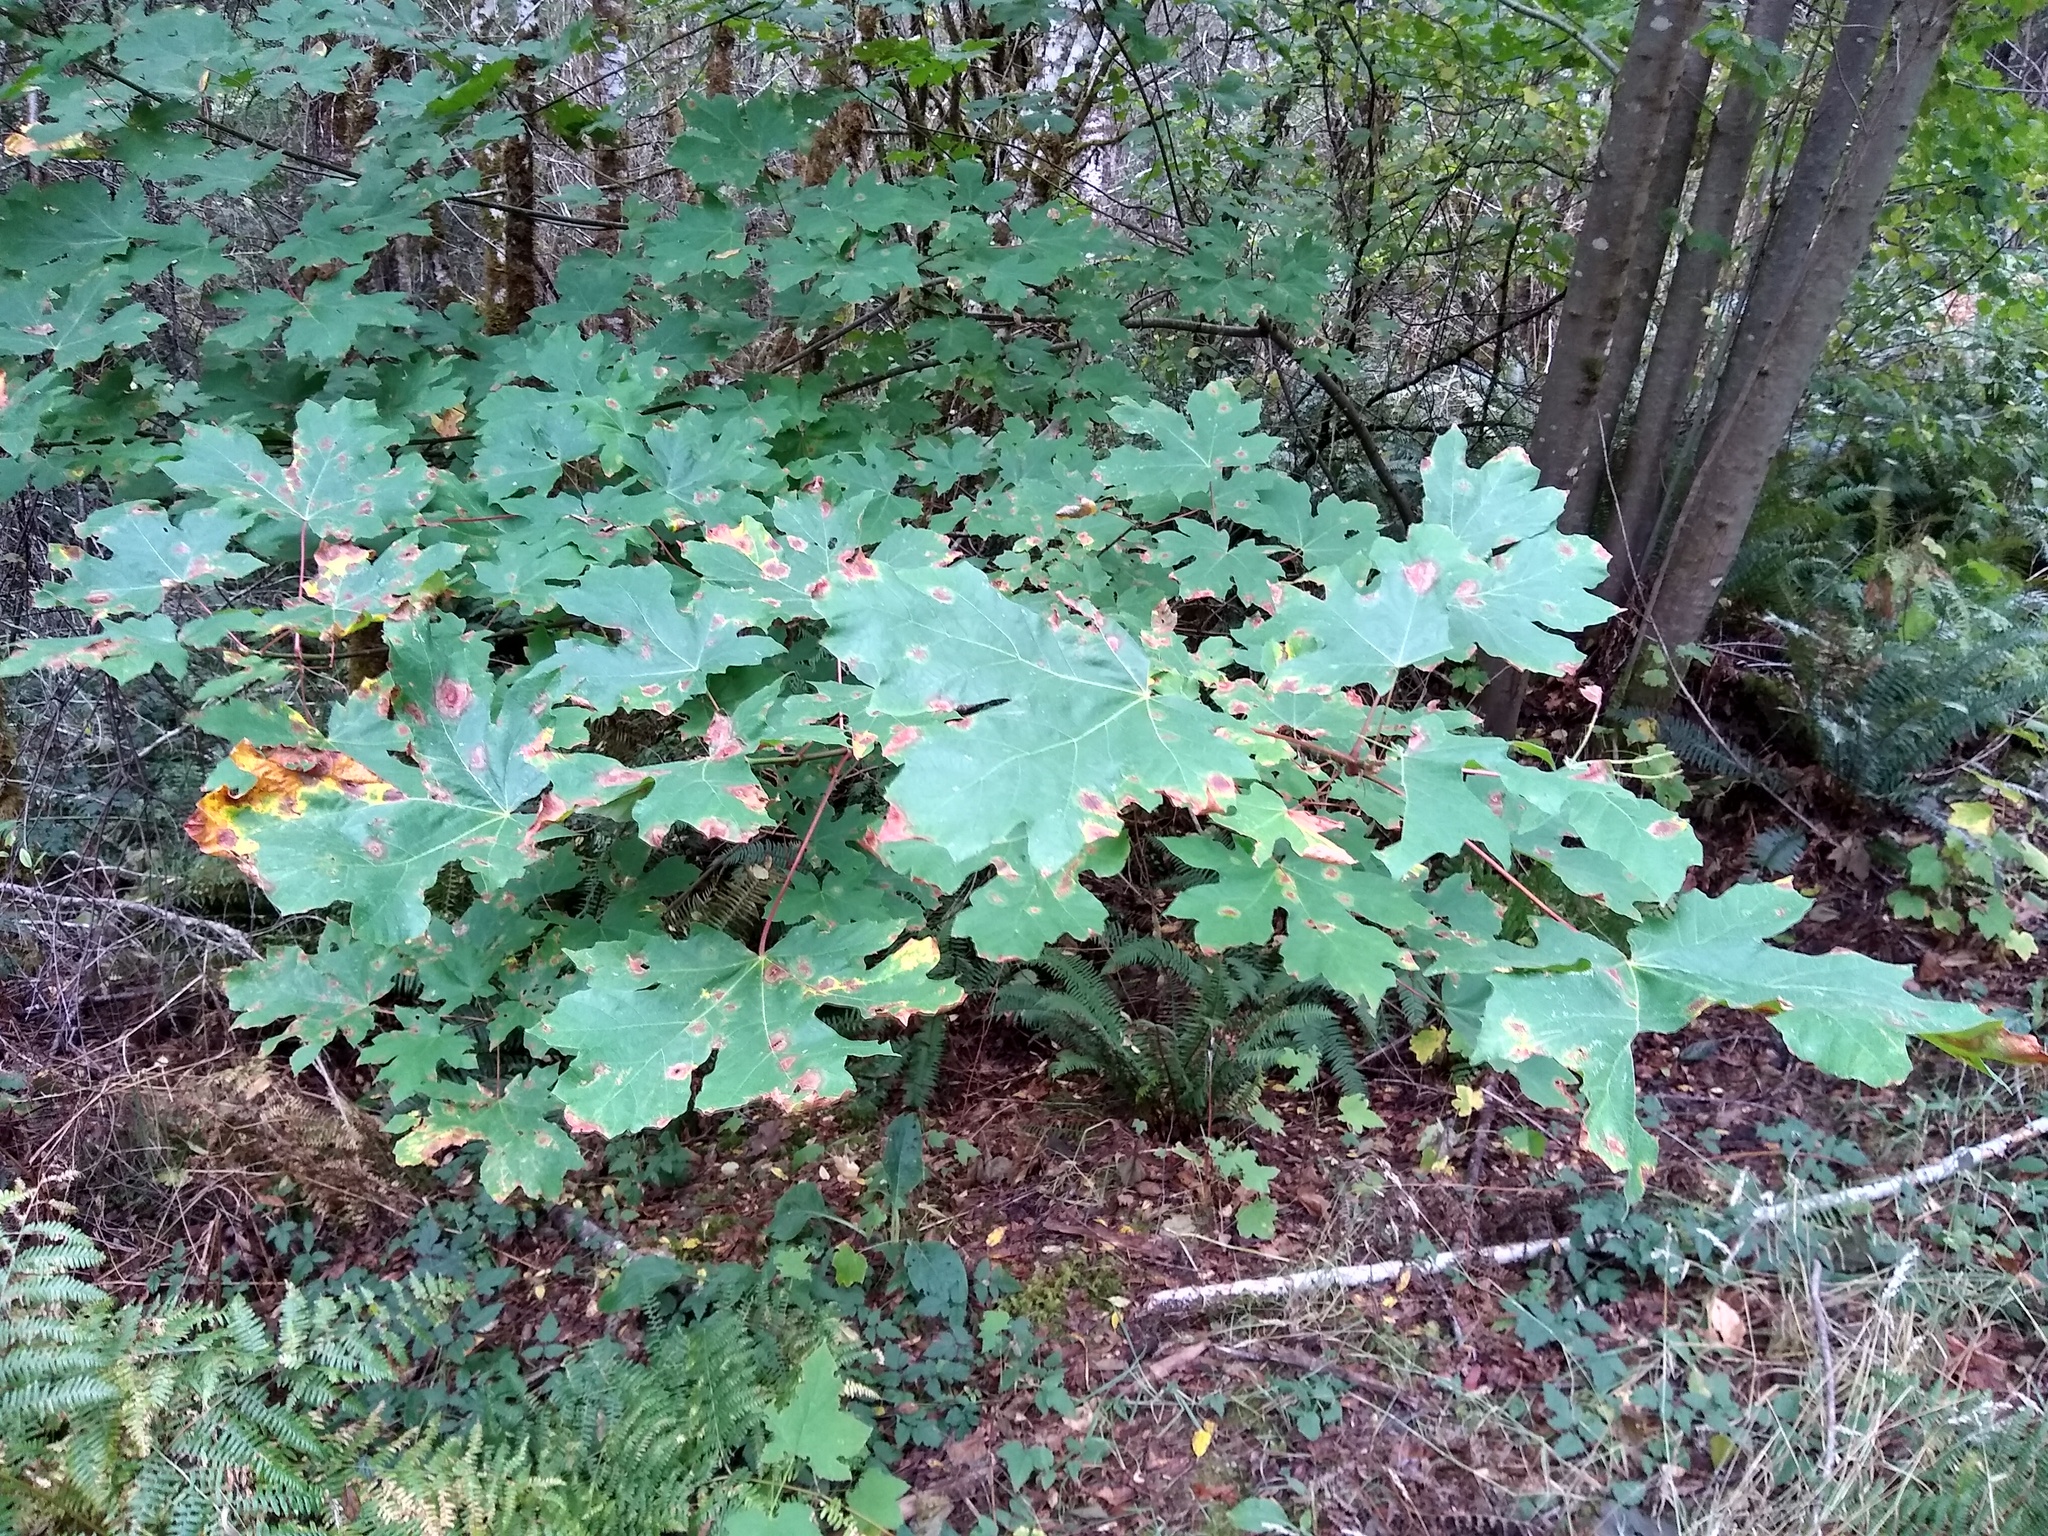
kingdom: Plantae
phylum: Tracheophyta
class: Magnoliopsida
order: Sapindales
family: Sapindaceae
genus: Acer
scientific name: Acer macrophyllum
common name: Oregon maple
